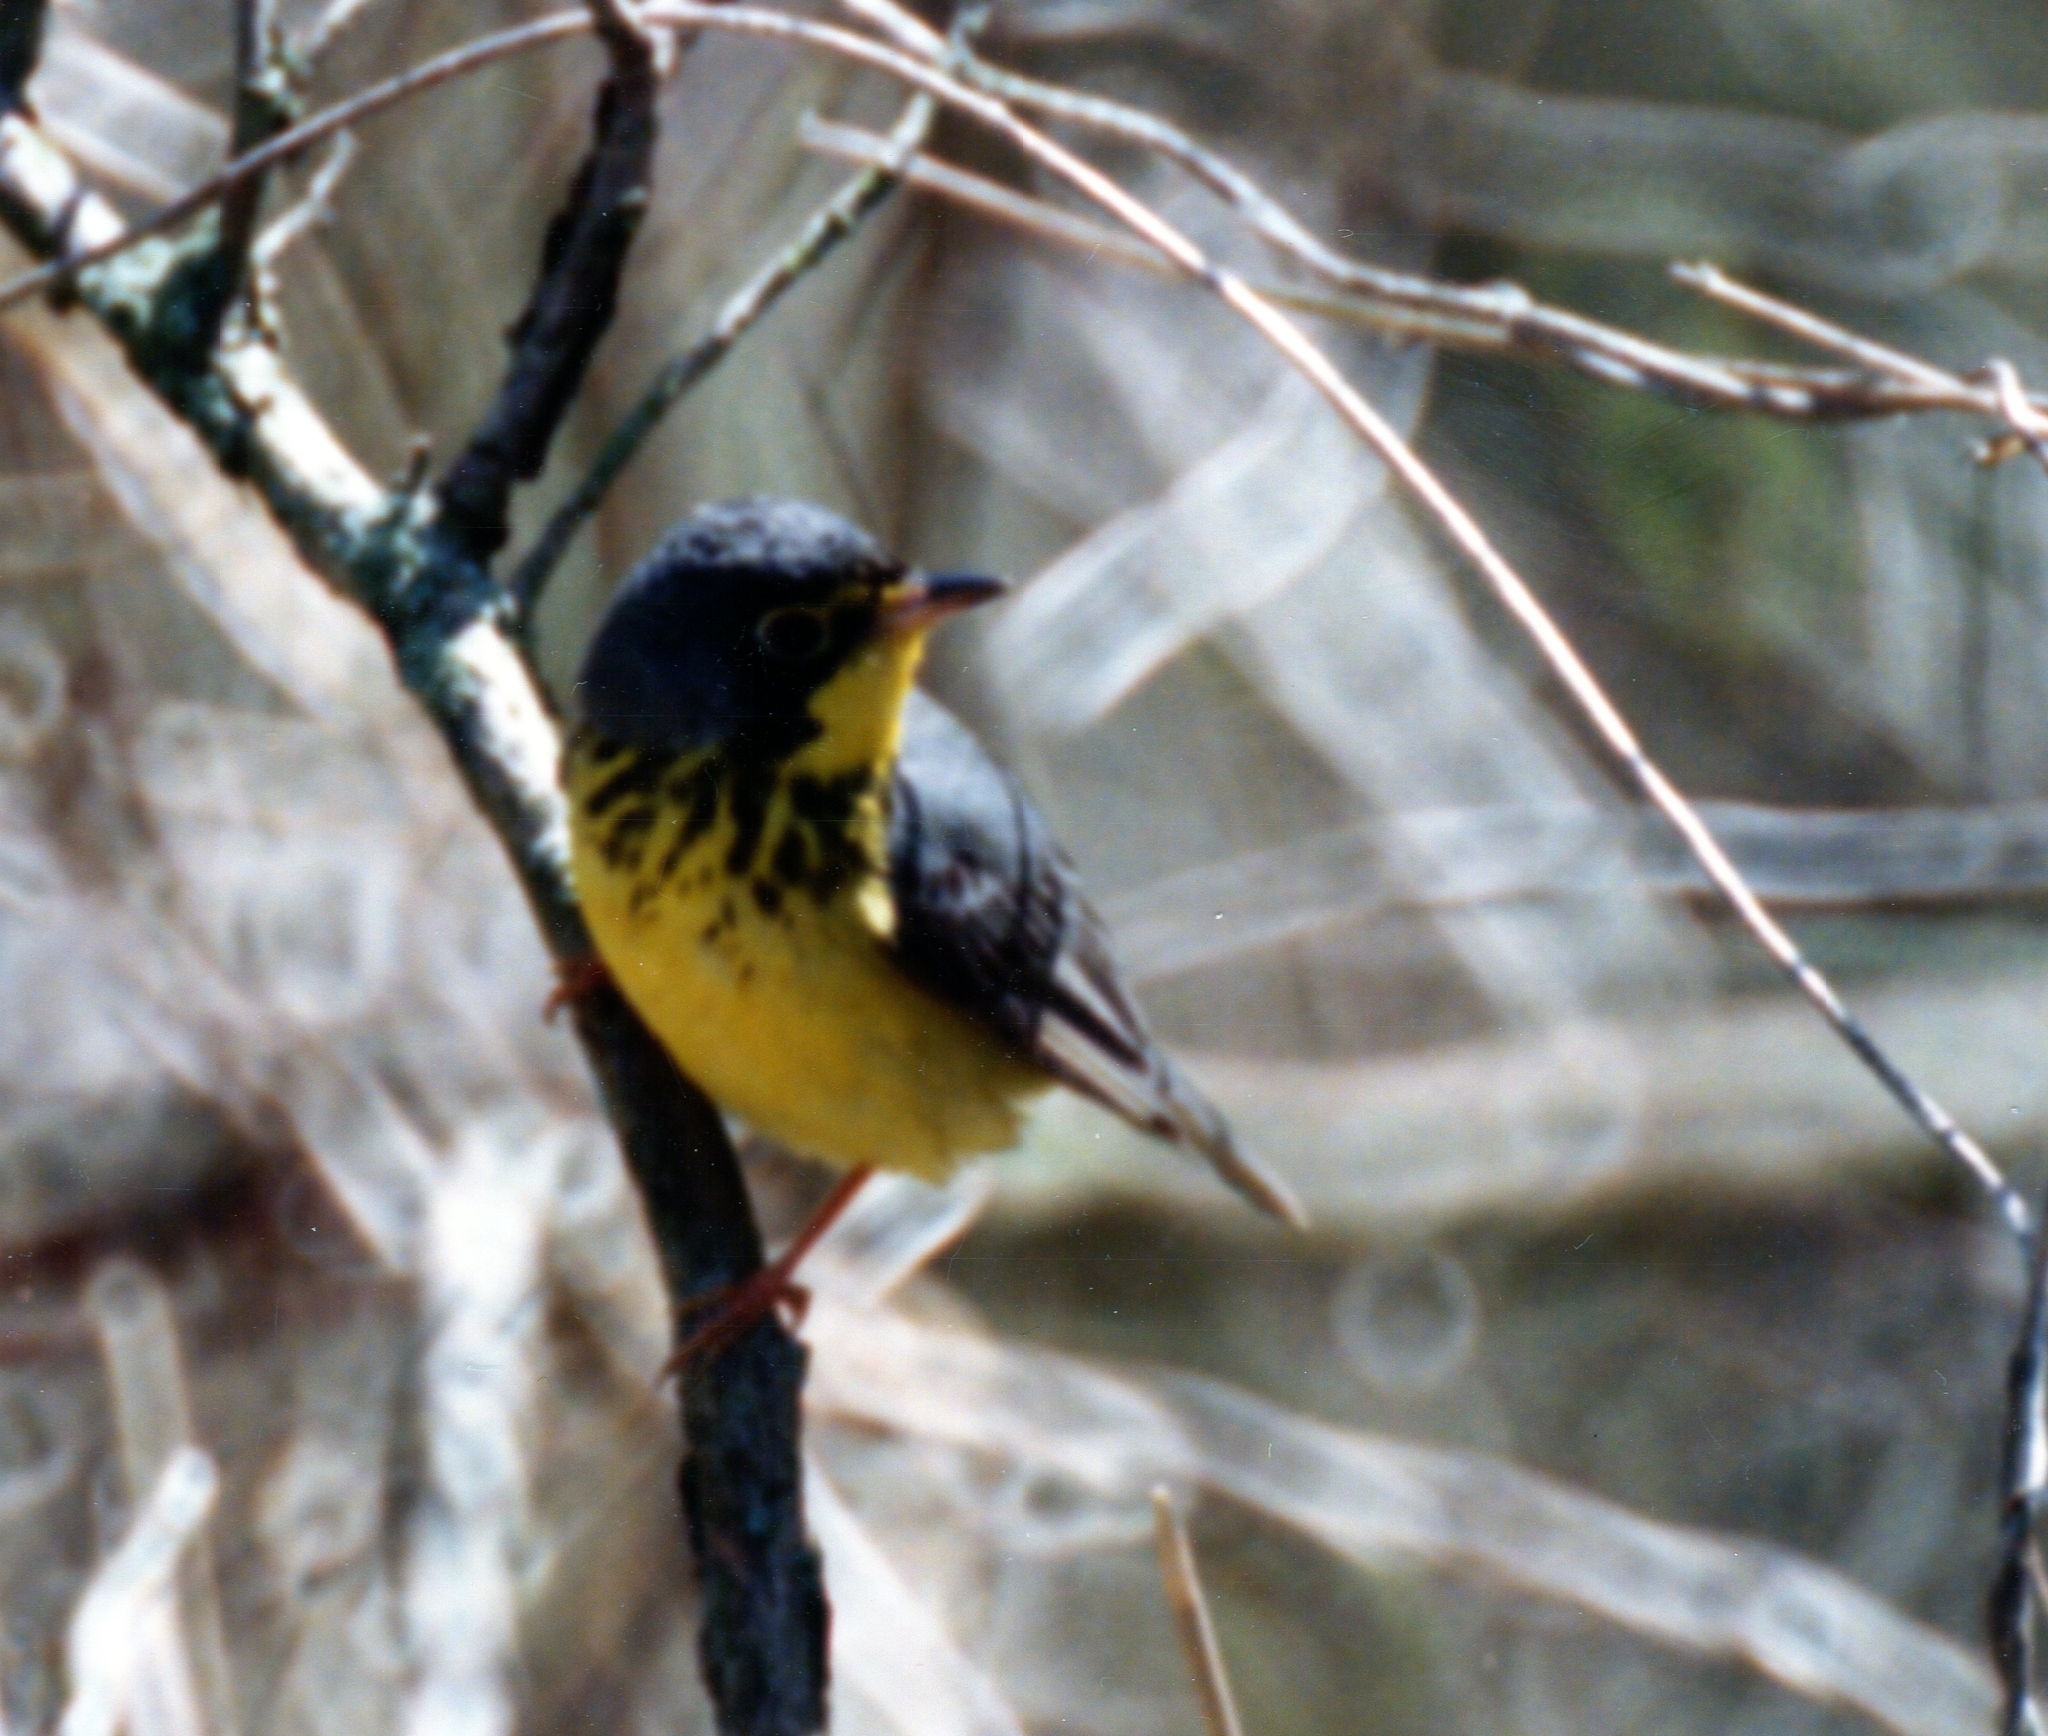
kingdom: Animalia
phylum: Chordata
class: Aves
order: Passeriformes
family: Parulidae
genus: Cardellina
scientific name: Cardellina canadensis
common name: Canada warbler
